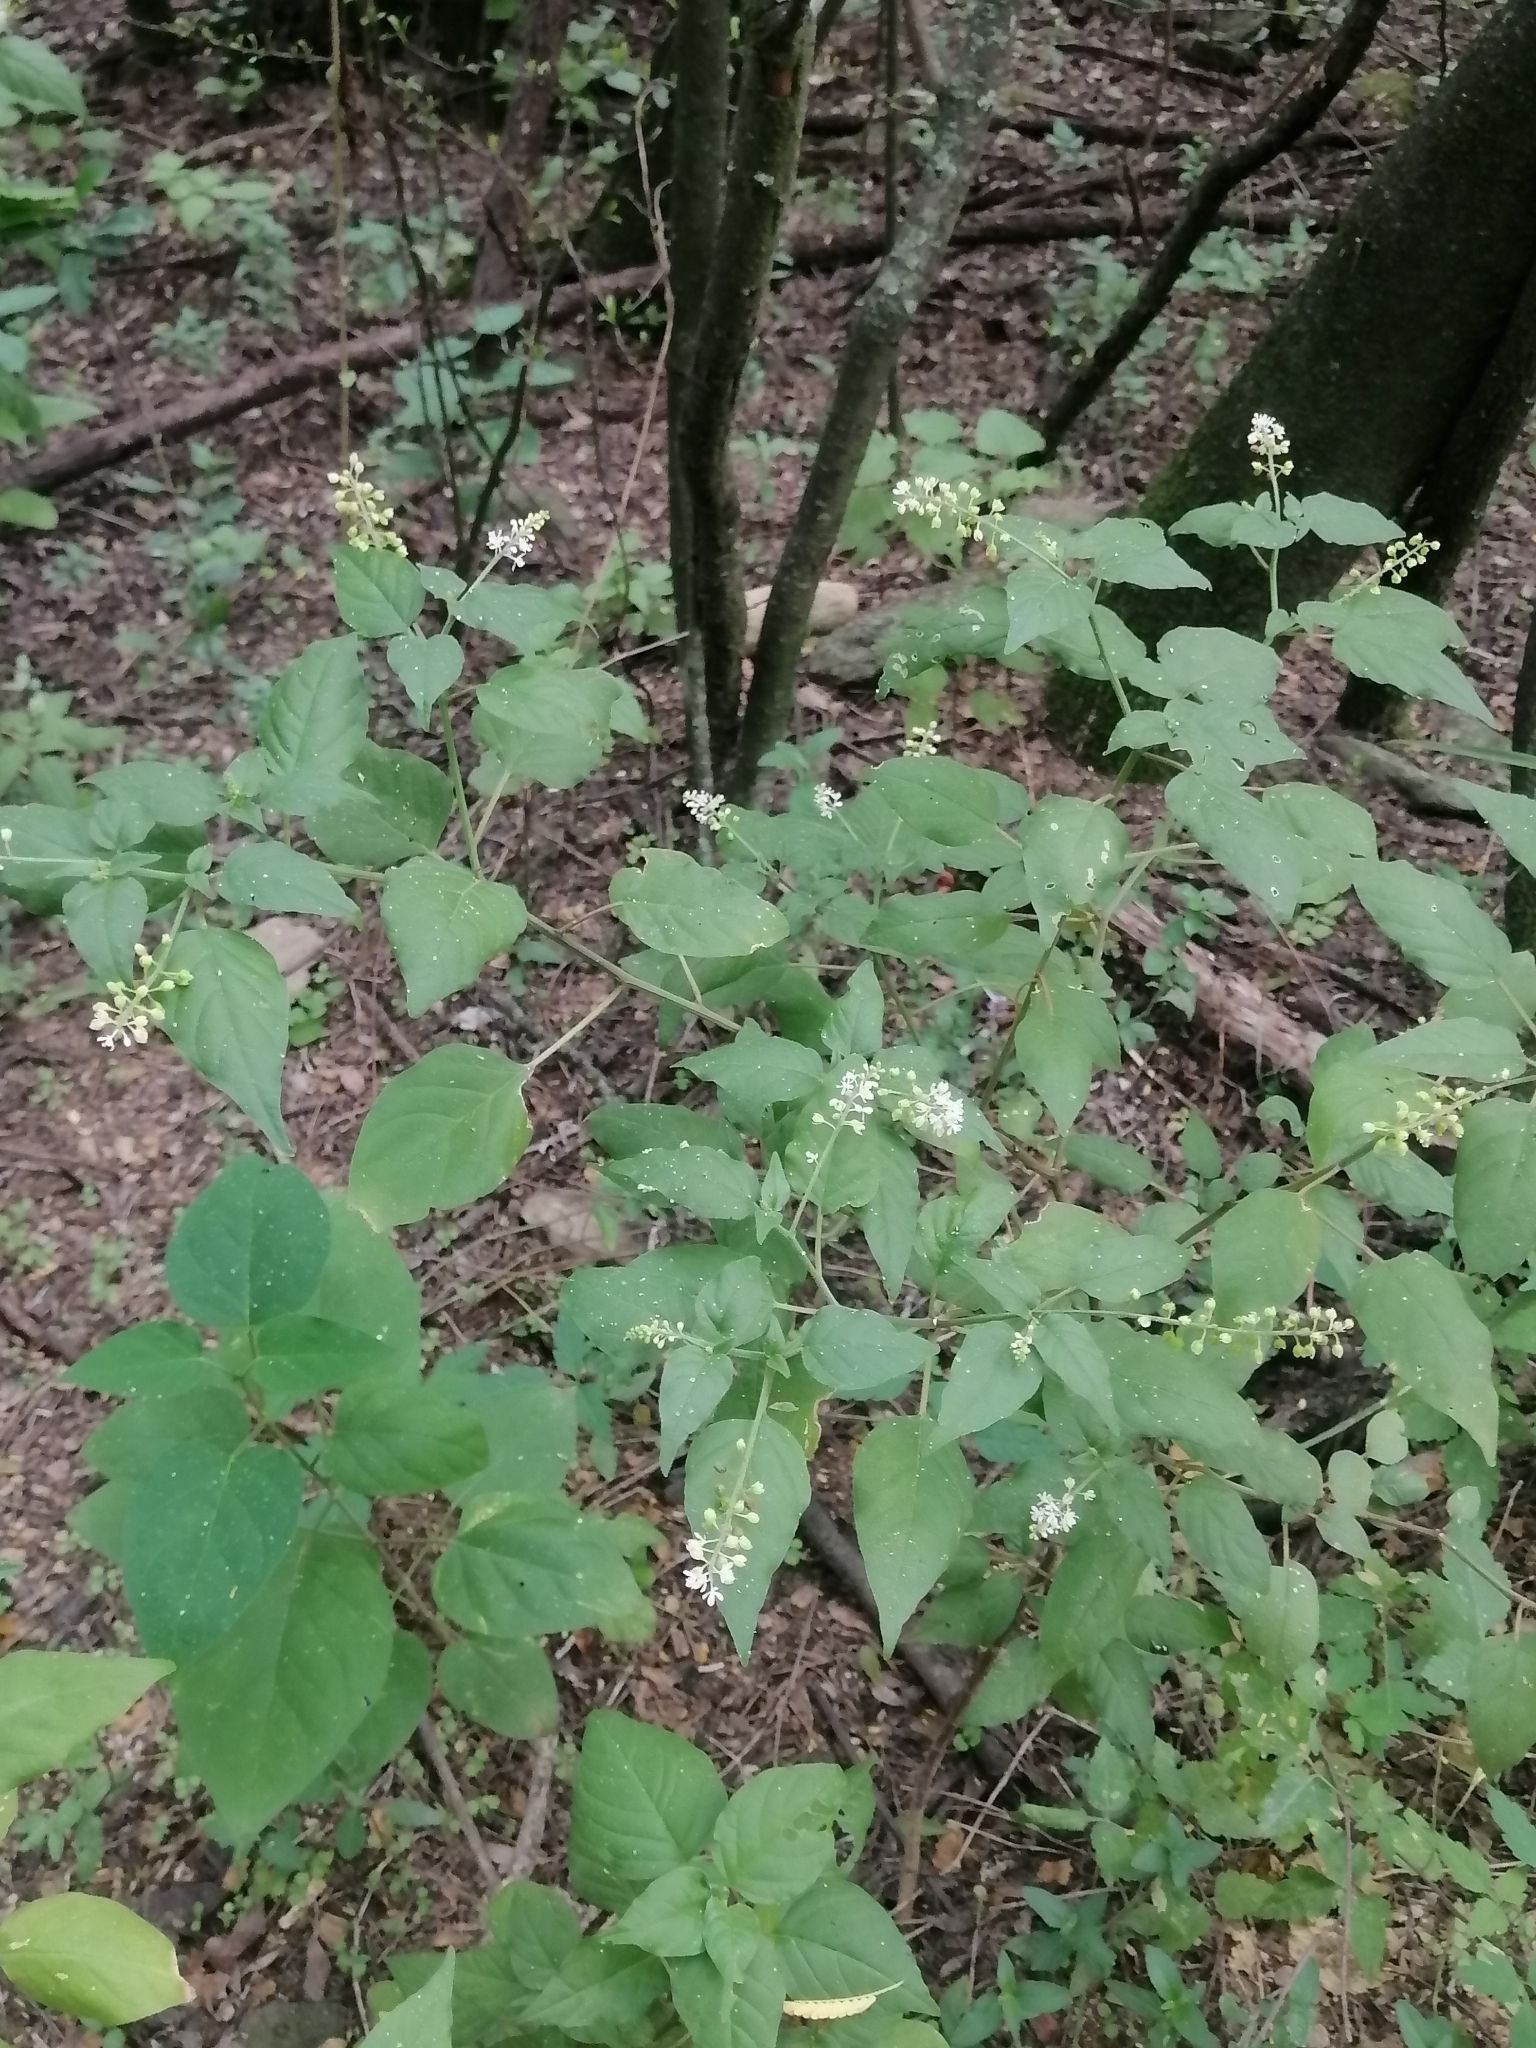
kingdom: Plantae
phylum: Tracheophyta
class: Magnoliopsida
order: Caryophyllales
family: Phytolaccaceae
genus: Rivina
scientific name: Rivina humilis
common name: Rougeplant
